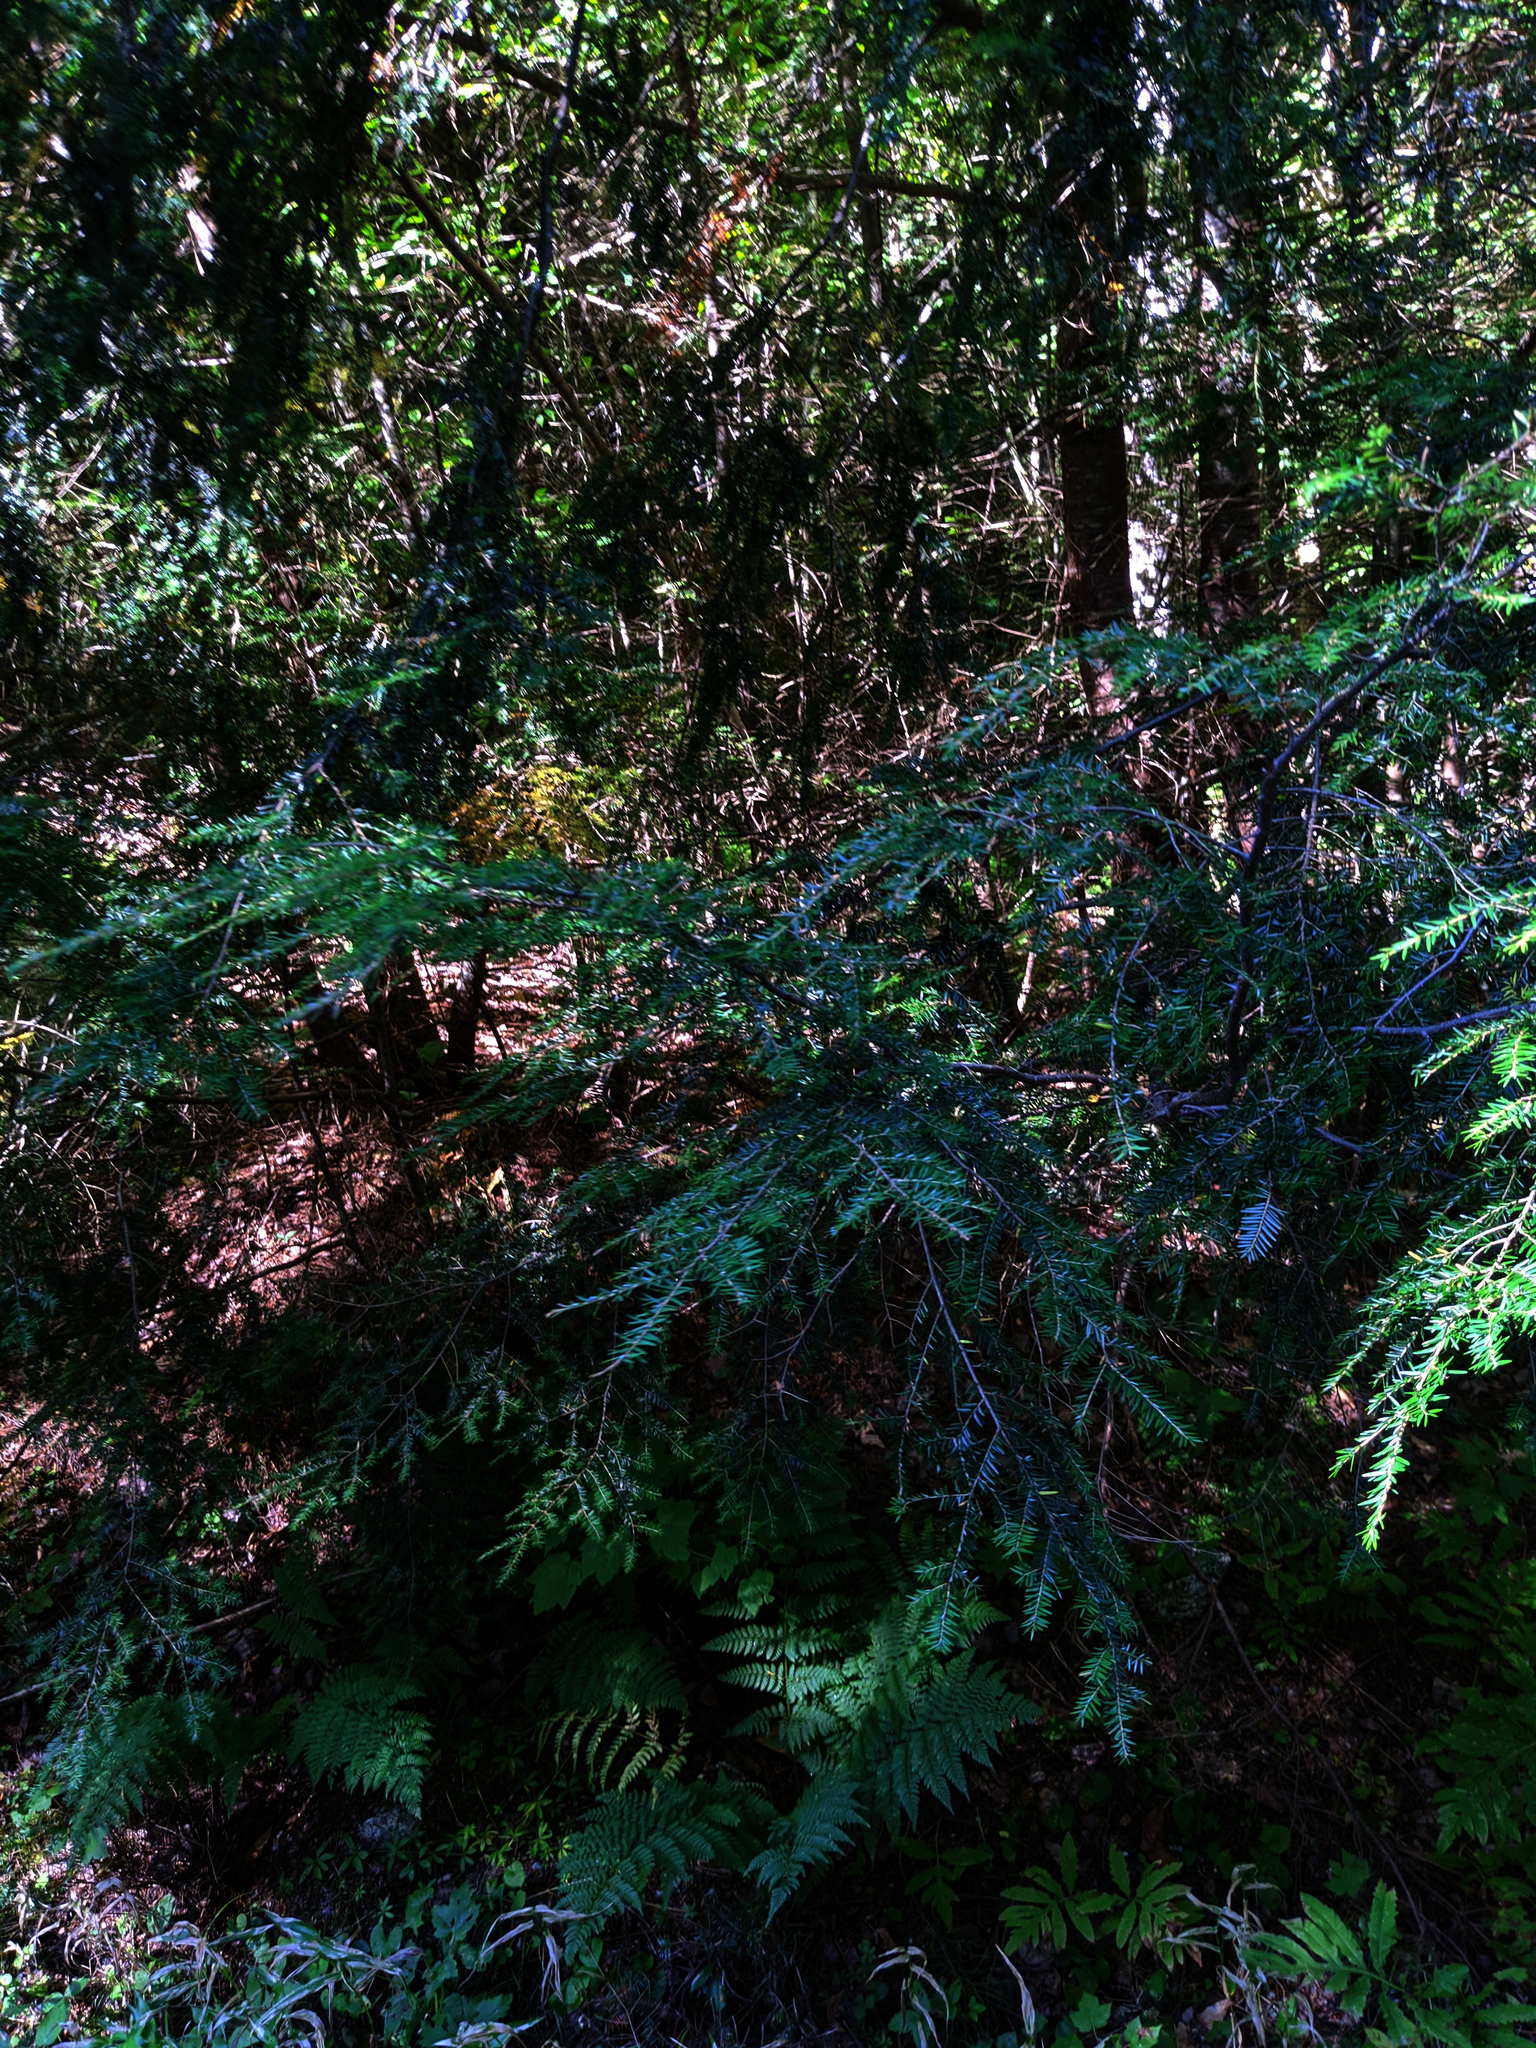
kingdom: Plantae
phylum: Tracheophyta
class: Pinopsida
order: Pinales
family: Pinaceae
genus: Tsuga
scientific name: Tsuga canadensis
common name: Eastern hemlock
